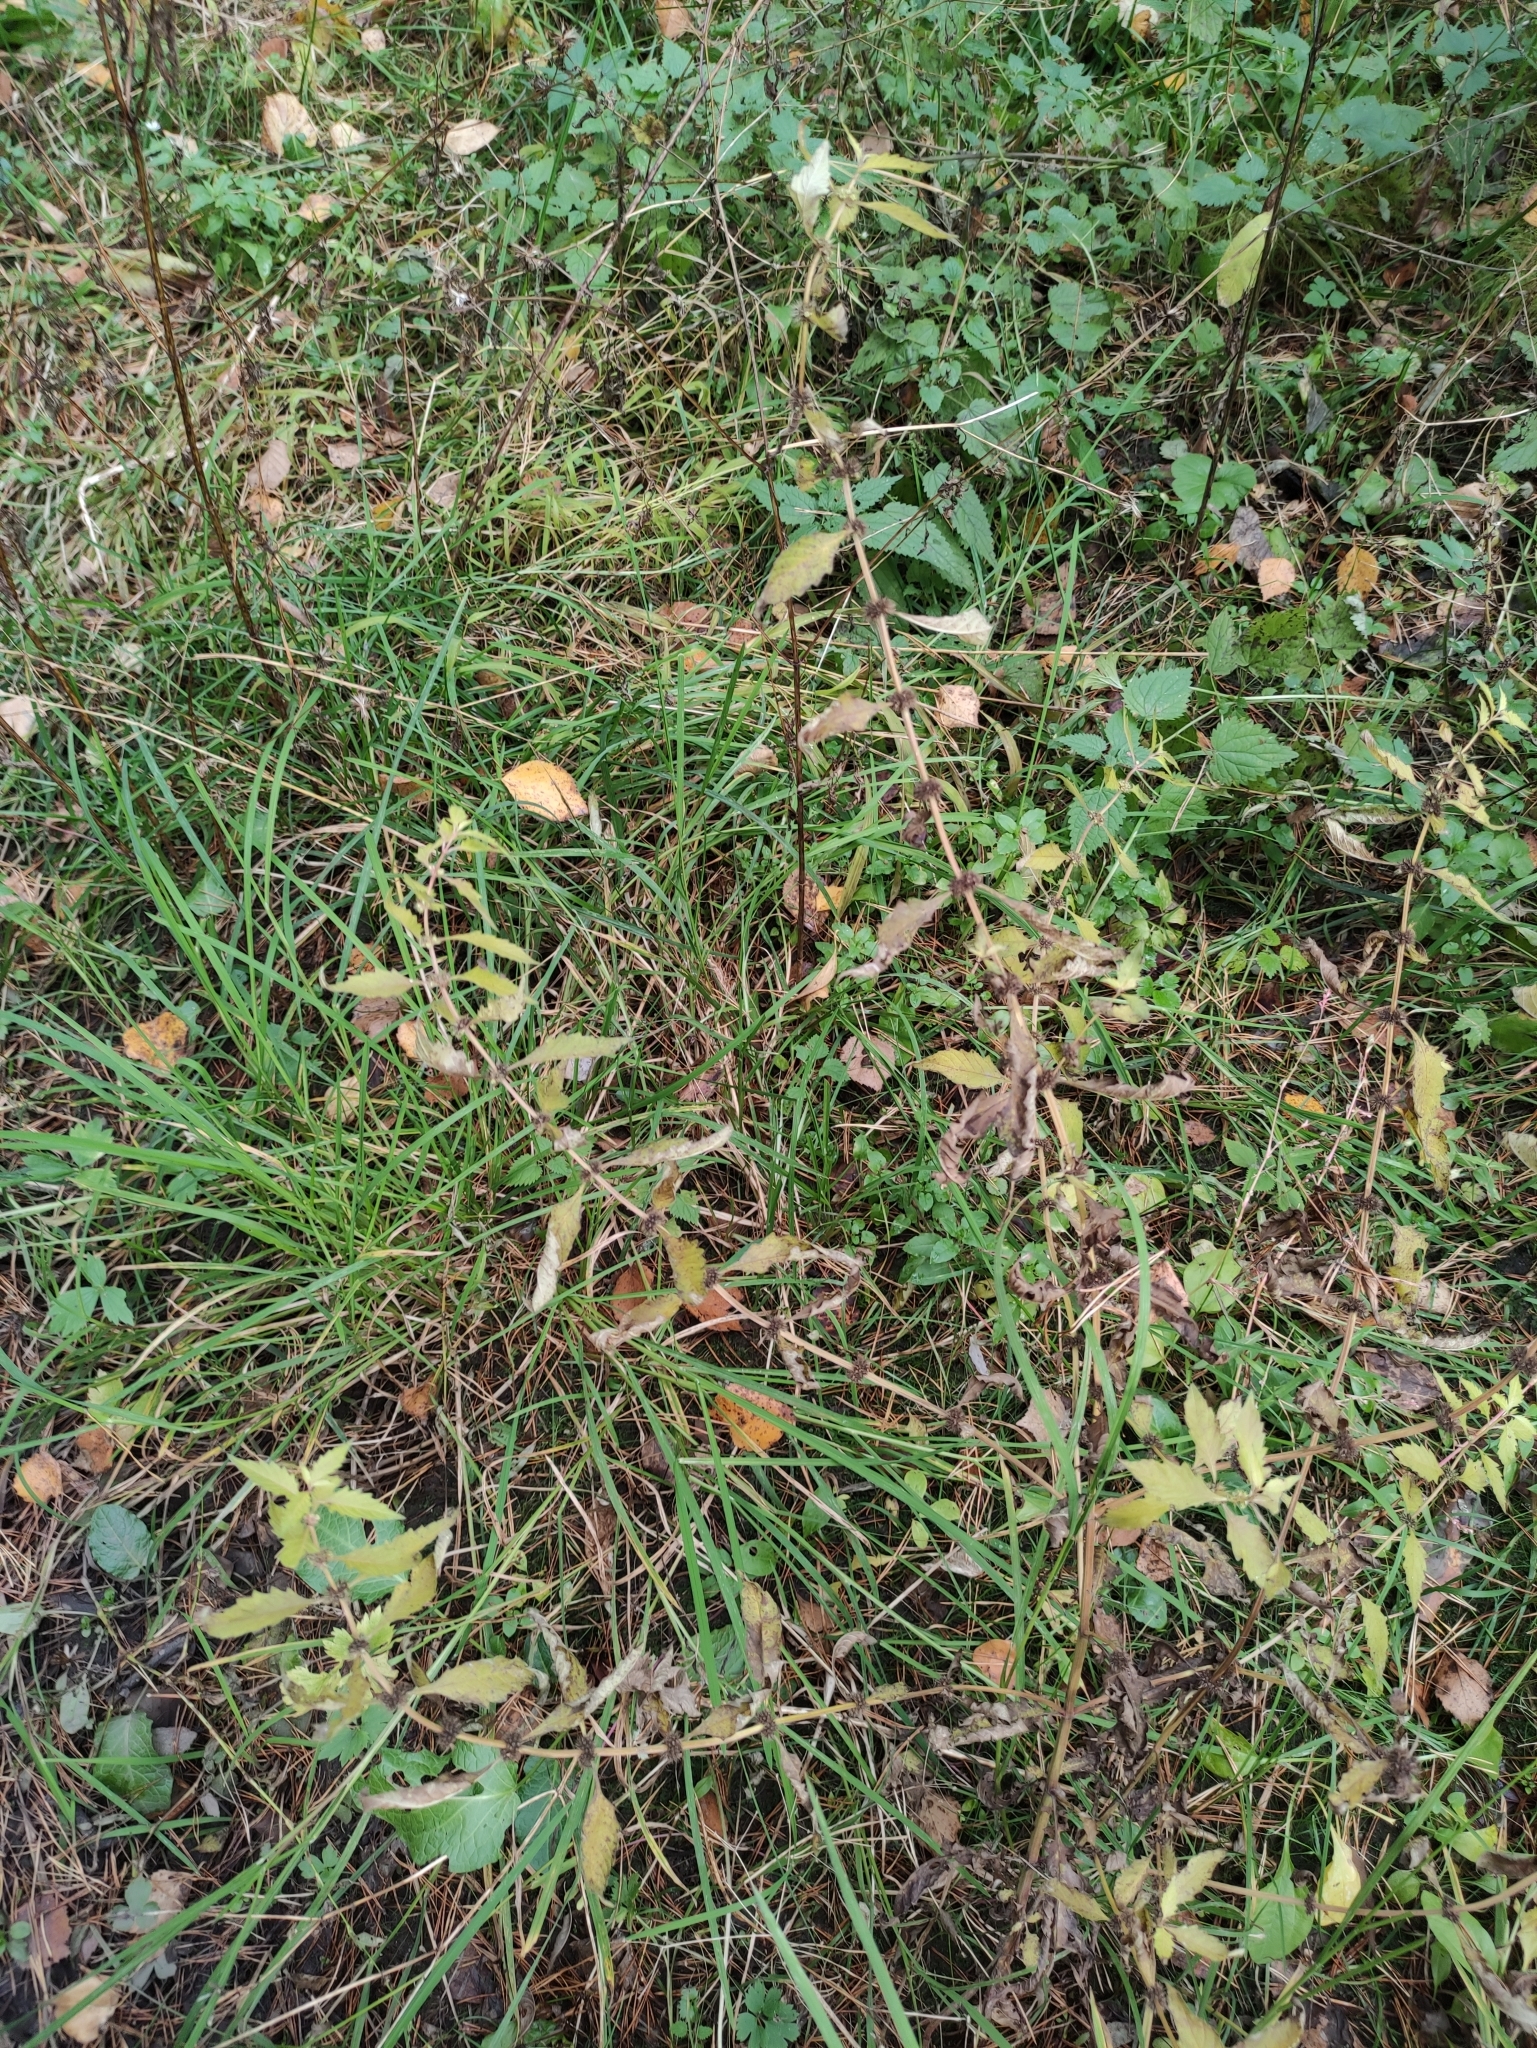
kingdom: Plantae
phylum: Tracheophyta
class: Magnoliopsida
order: Lamiales
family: Lamiaceae
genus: Lycopus
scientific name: Lycopus europaeus
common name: European bugleweed
